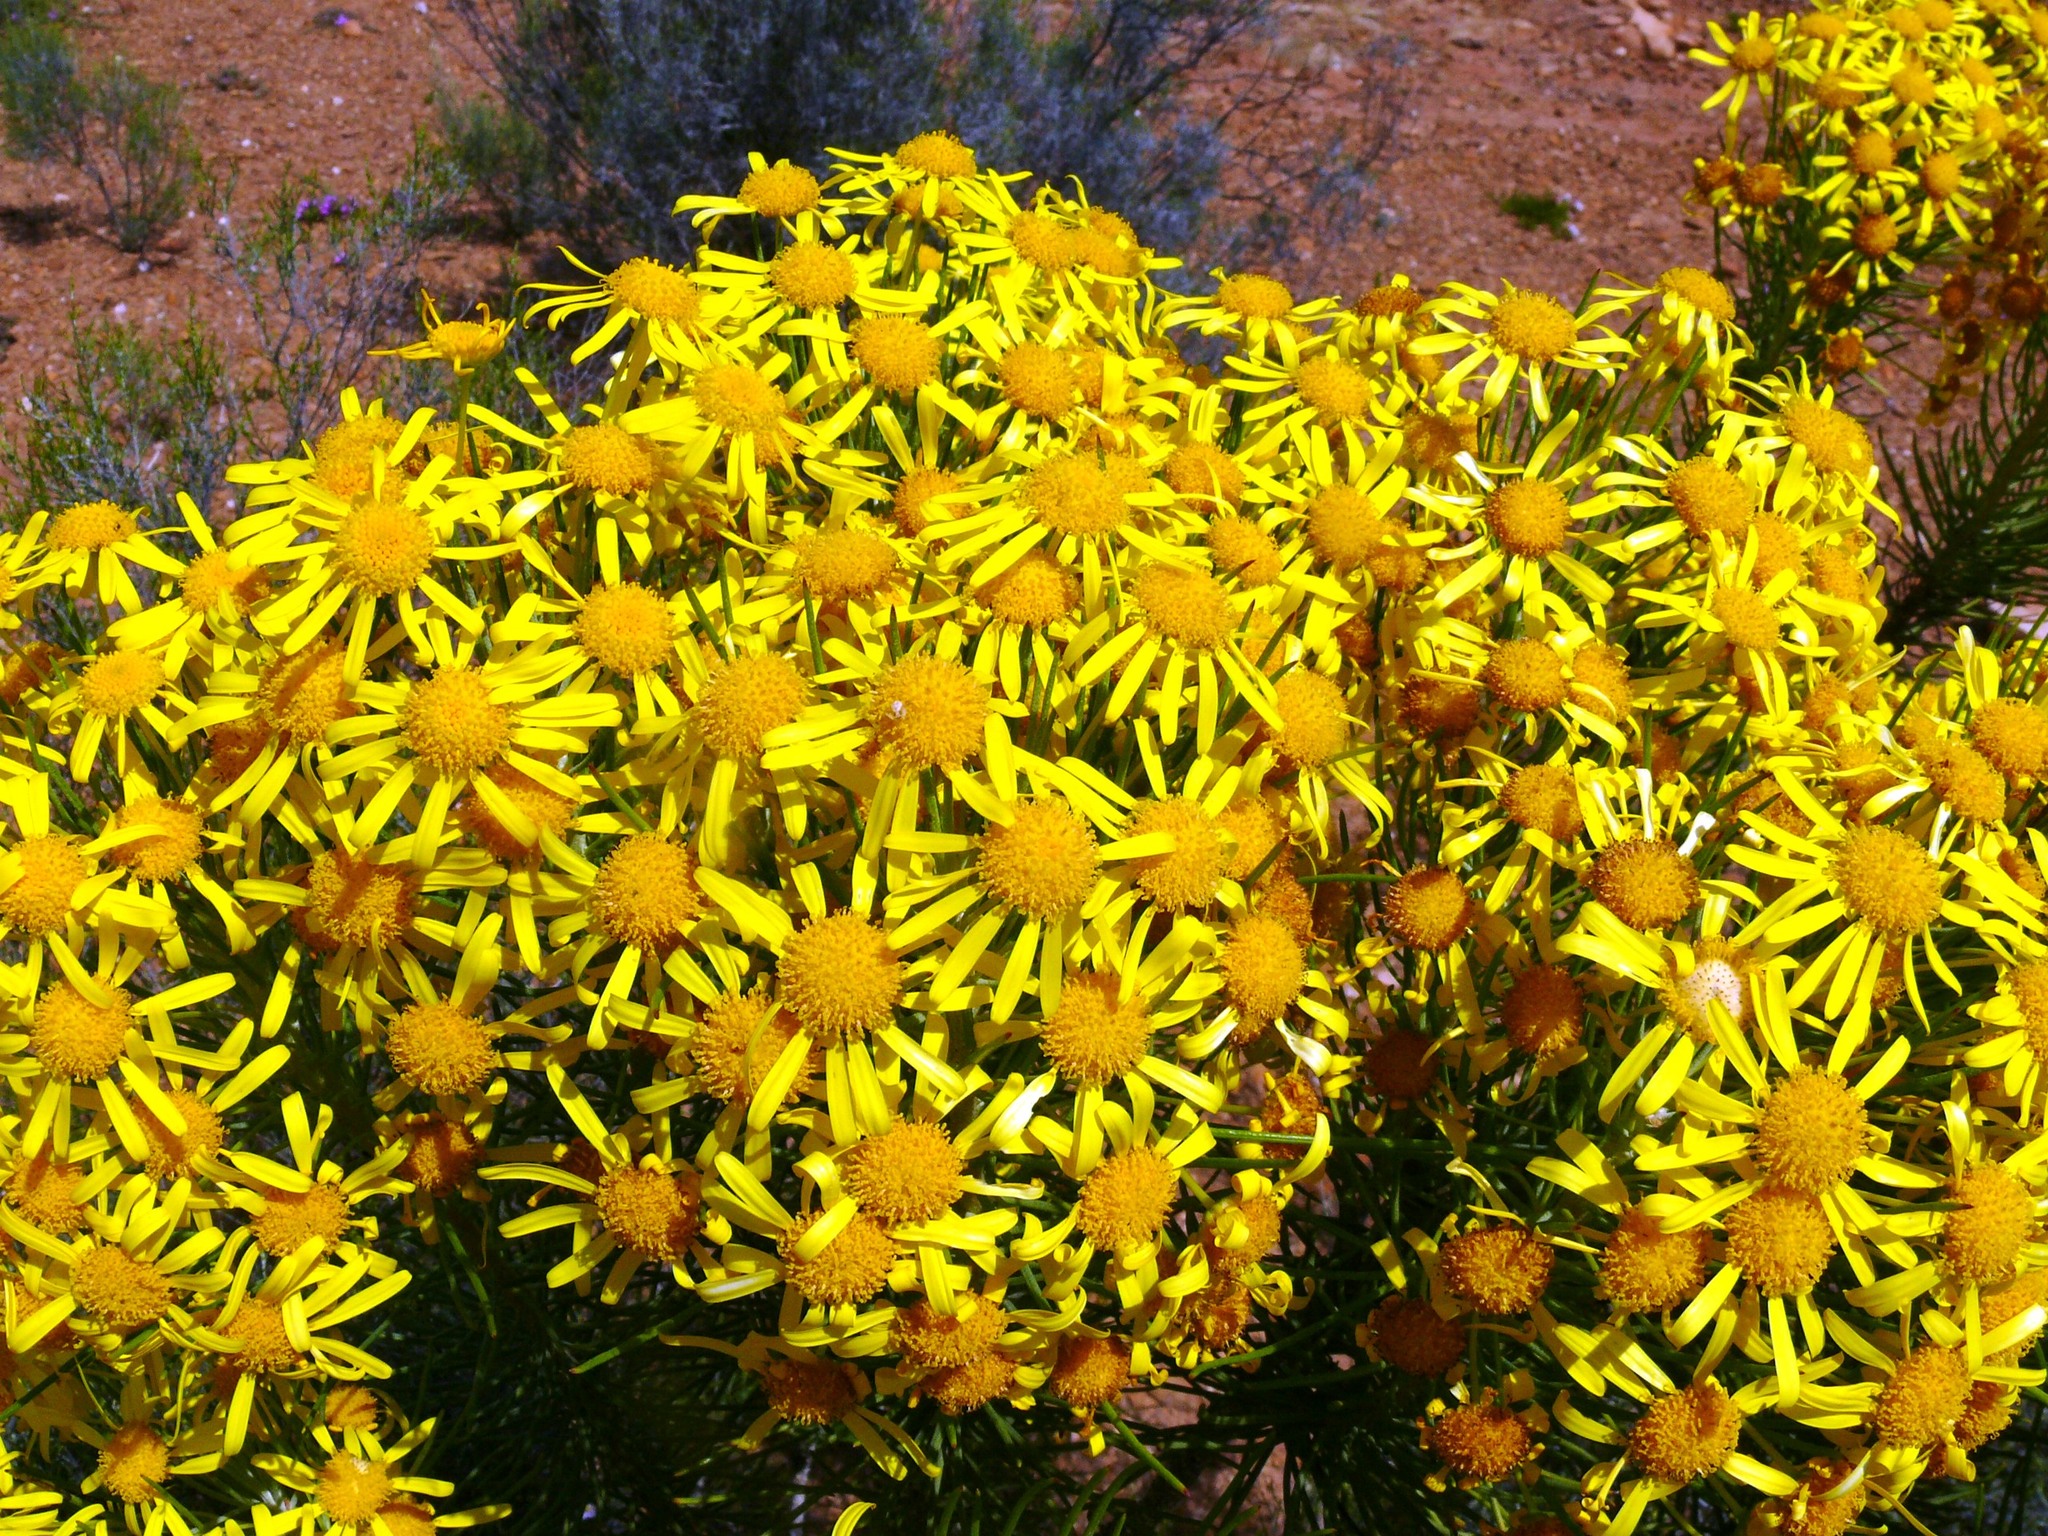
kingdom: Plantae
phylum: Tracheophyta
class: Magnoliopsida
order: Asterales
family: Asteraceae
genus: Euryops
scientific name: Euryops tenuissimus
